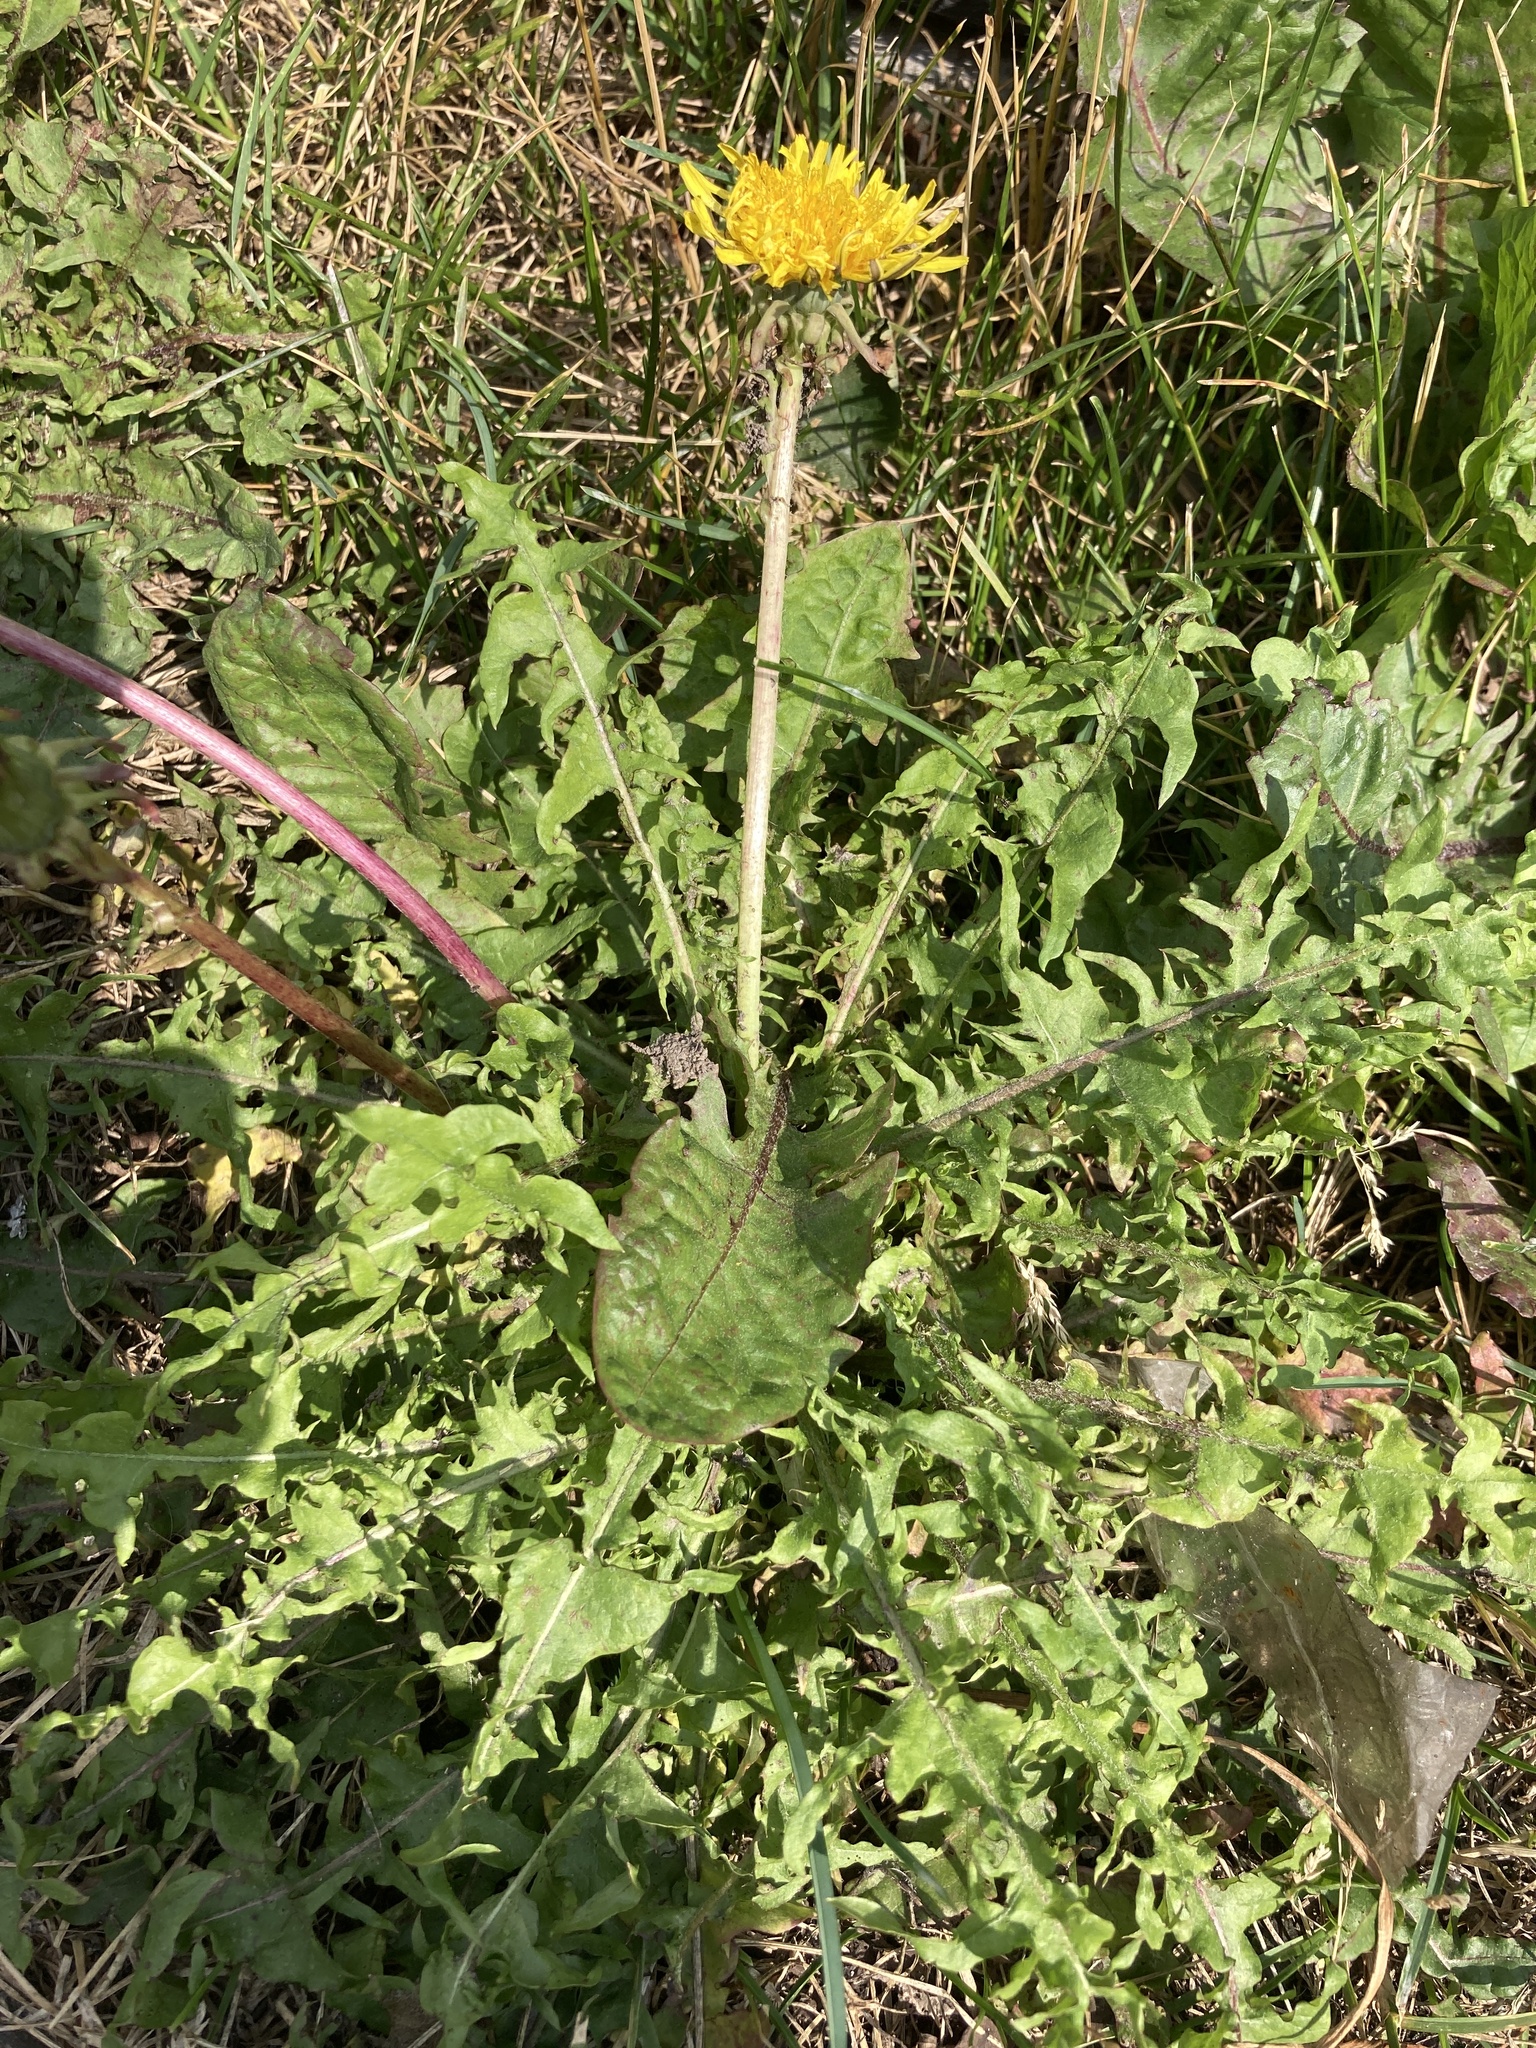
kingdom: Plantae
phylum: Tracheophyta
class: Magnoliopsida
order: Asterales
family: Asteraceae
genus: Taraxacum
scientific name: Taraxacum officinale
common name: Common dandelion
